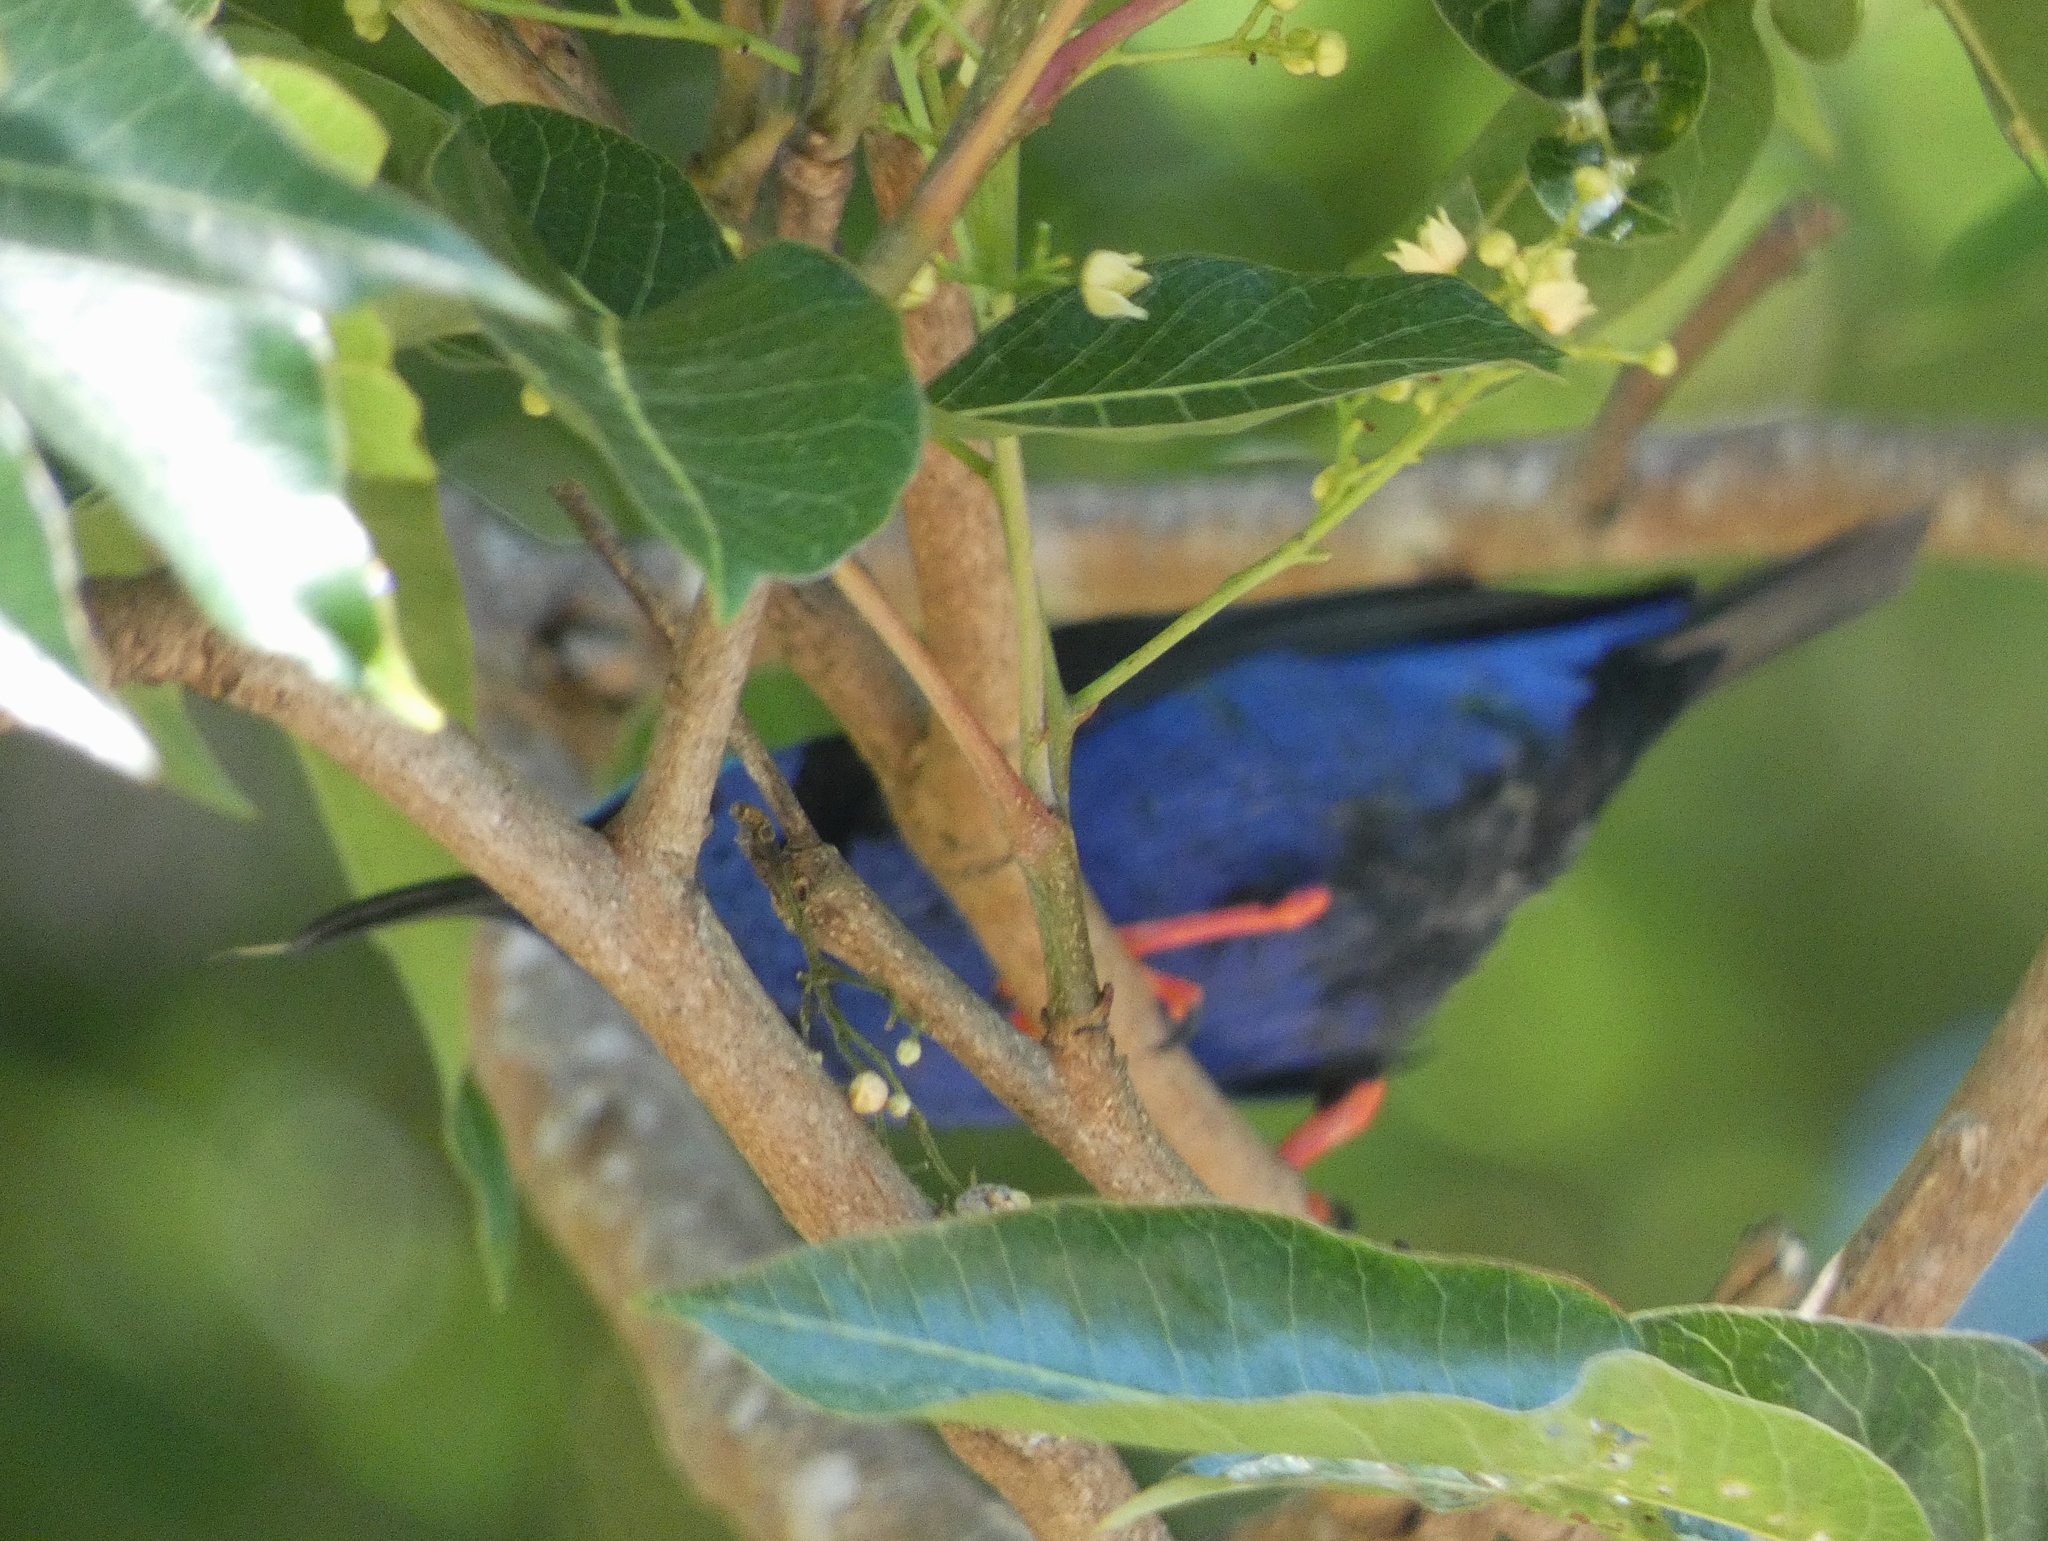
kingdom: Animalia
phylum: Chordata
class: Aves
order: Passeriformes
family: Thraupidae
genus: Cyanerpes
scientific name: Cyanerpes cyaneus
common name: Red-legged honeycreeper
